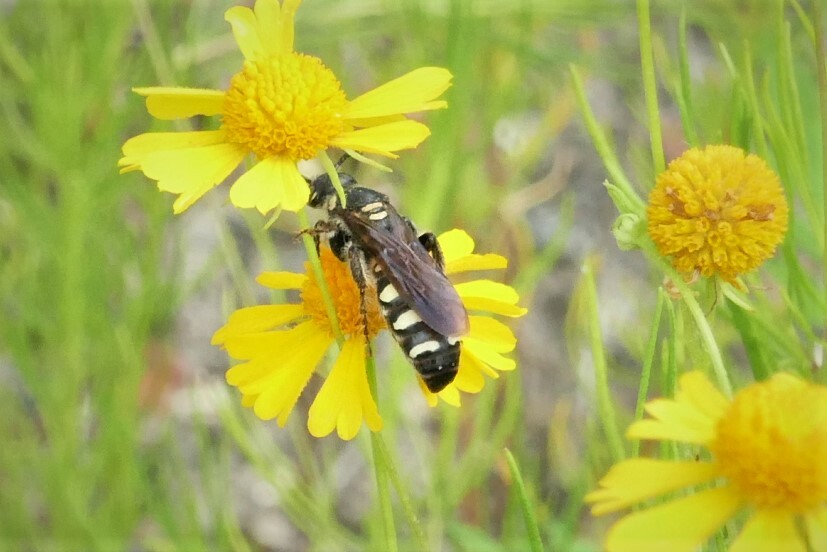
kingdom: Animalia
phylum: Arthropoda
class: Insecta
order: Hymenoptera
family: Scoliidae
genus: Colpa
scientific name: Colpa octomaculata
